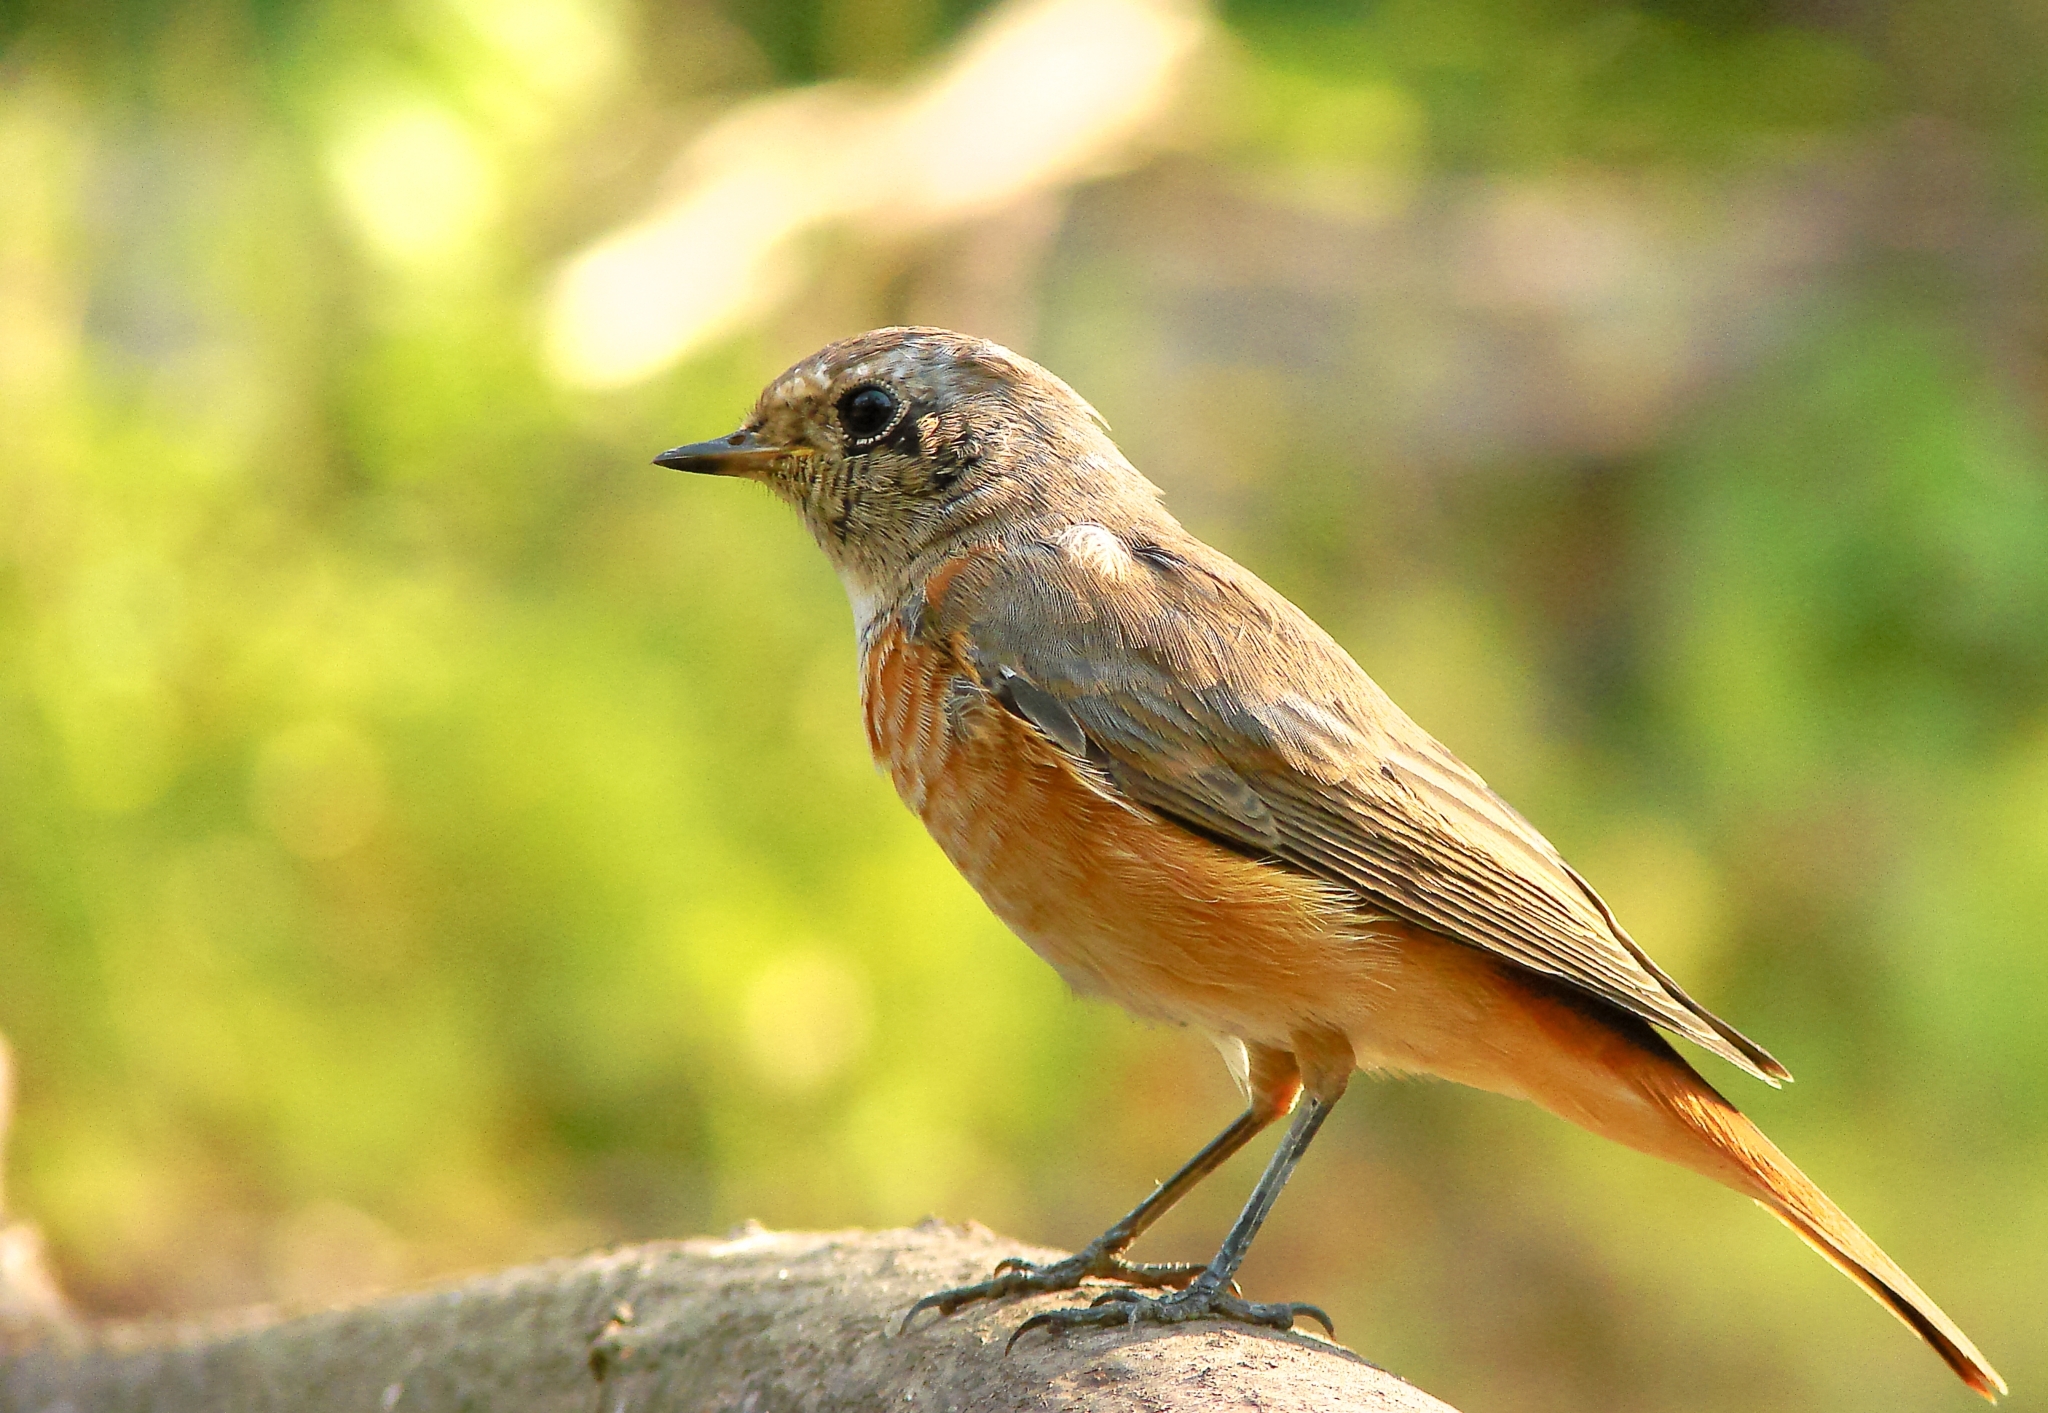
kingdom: Animalia
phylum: Chordata
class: Aves
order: Passeriformes
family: Muscicapidae
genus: Phoenicurus
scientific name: Phoenicurus phoenicurus
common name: Common redstart
